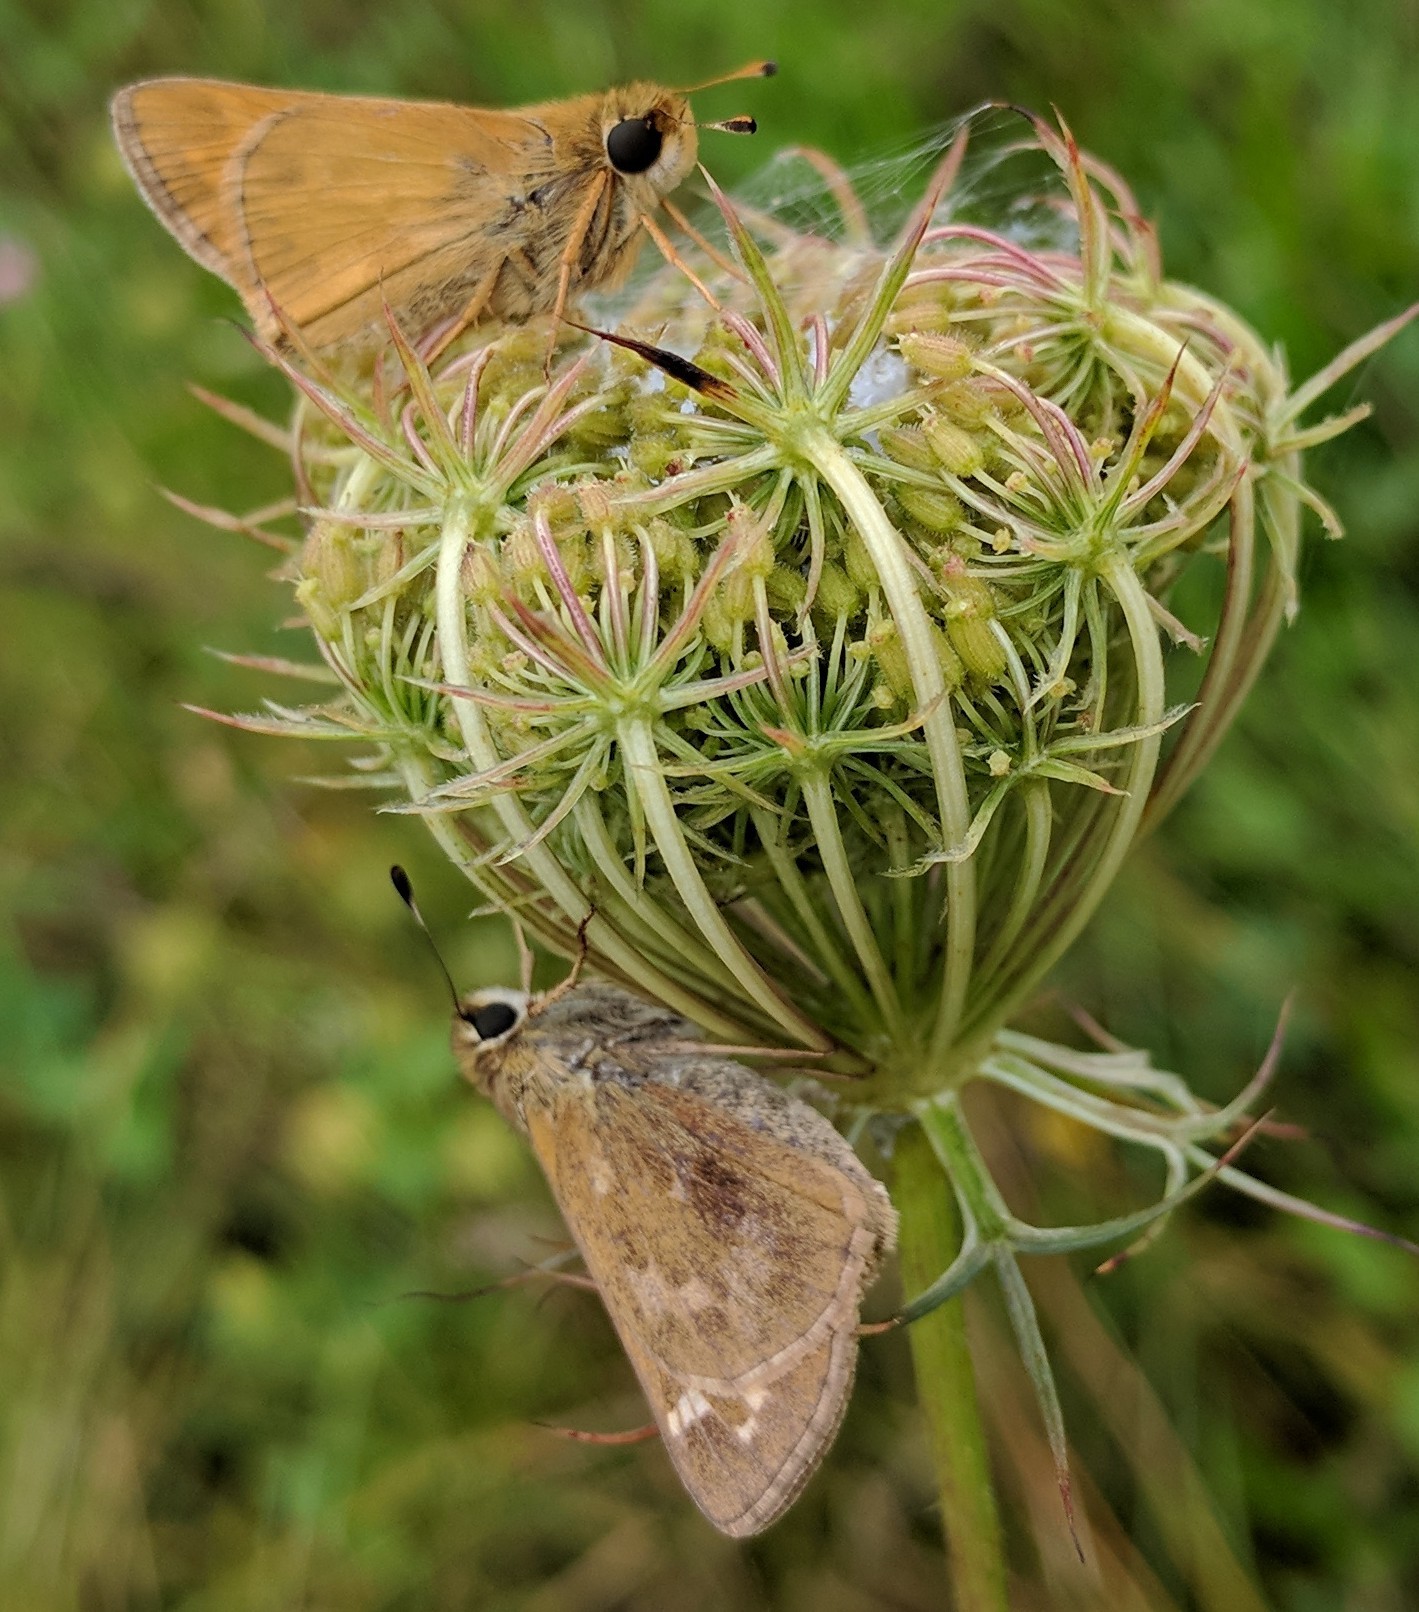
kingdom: Animalia
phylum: Arthropoda
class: Insecta
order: Lepidoptera
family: Hesperiidae
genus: Atalopedes
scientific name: Atalopedes
